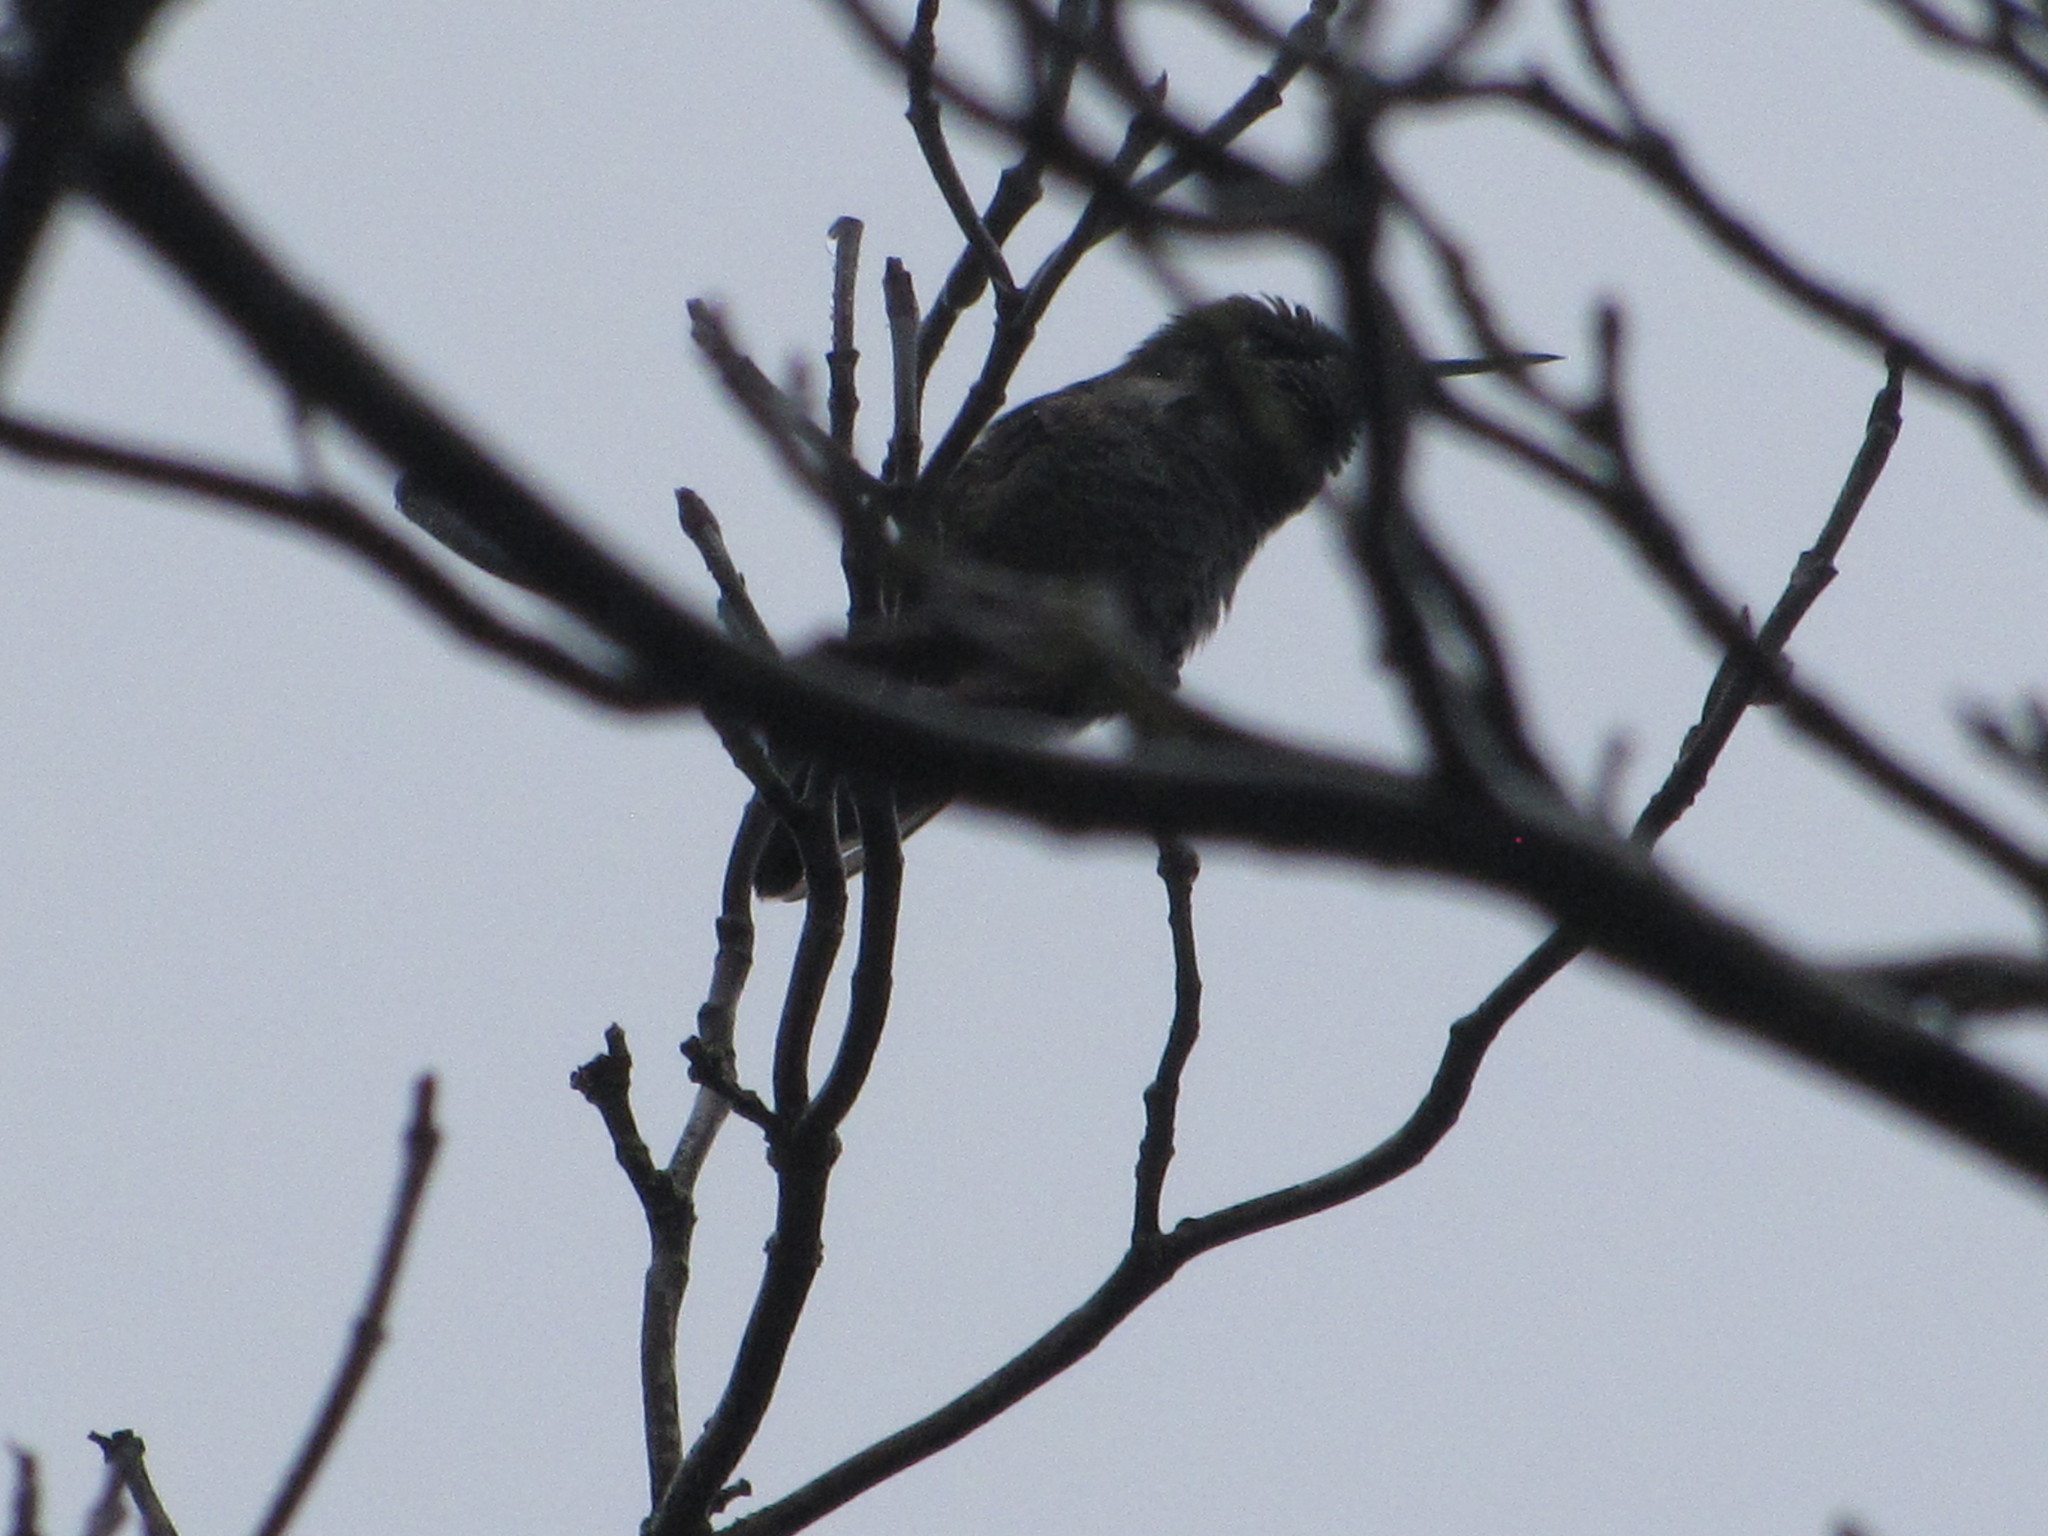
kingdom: Animalia
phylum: Chordata
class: Aves
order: Apodiformes
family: Trochilidae
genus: Calypte
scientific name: Calypte anna
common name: Anna's hummingbird
